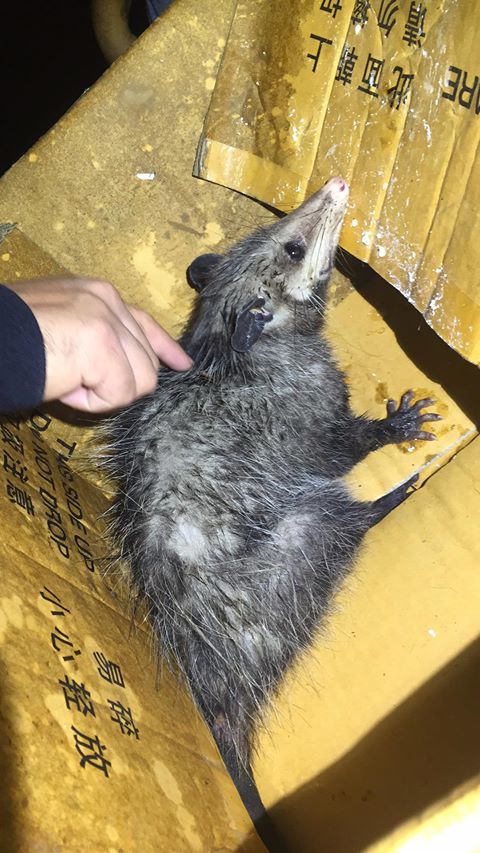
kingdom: Animalia
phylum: Chordata
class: Mammalia
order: Didelphimorphia
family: Didelphidae
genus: Didelphis
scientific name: Didelphis virginiana
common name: Virginia opossum
